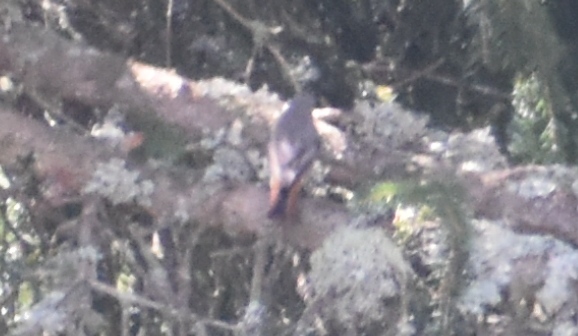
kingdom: Animalia
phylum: Chordata
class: Aves
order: Passeriformes
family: Muscicapidae
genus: Phoenicurus
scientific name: Phoenicurus ochruros
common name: Black redstart
